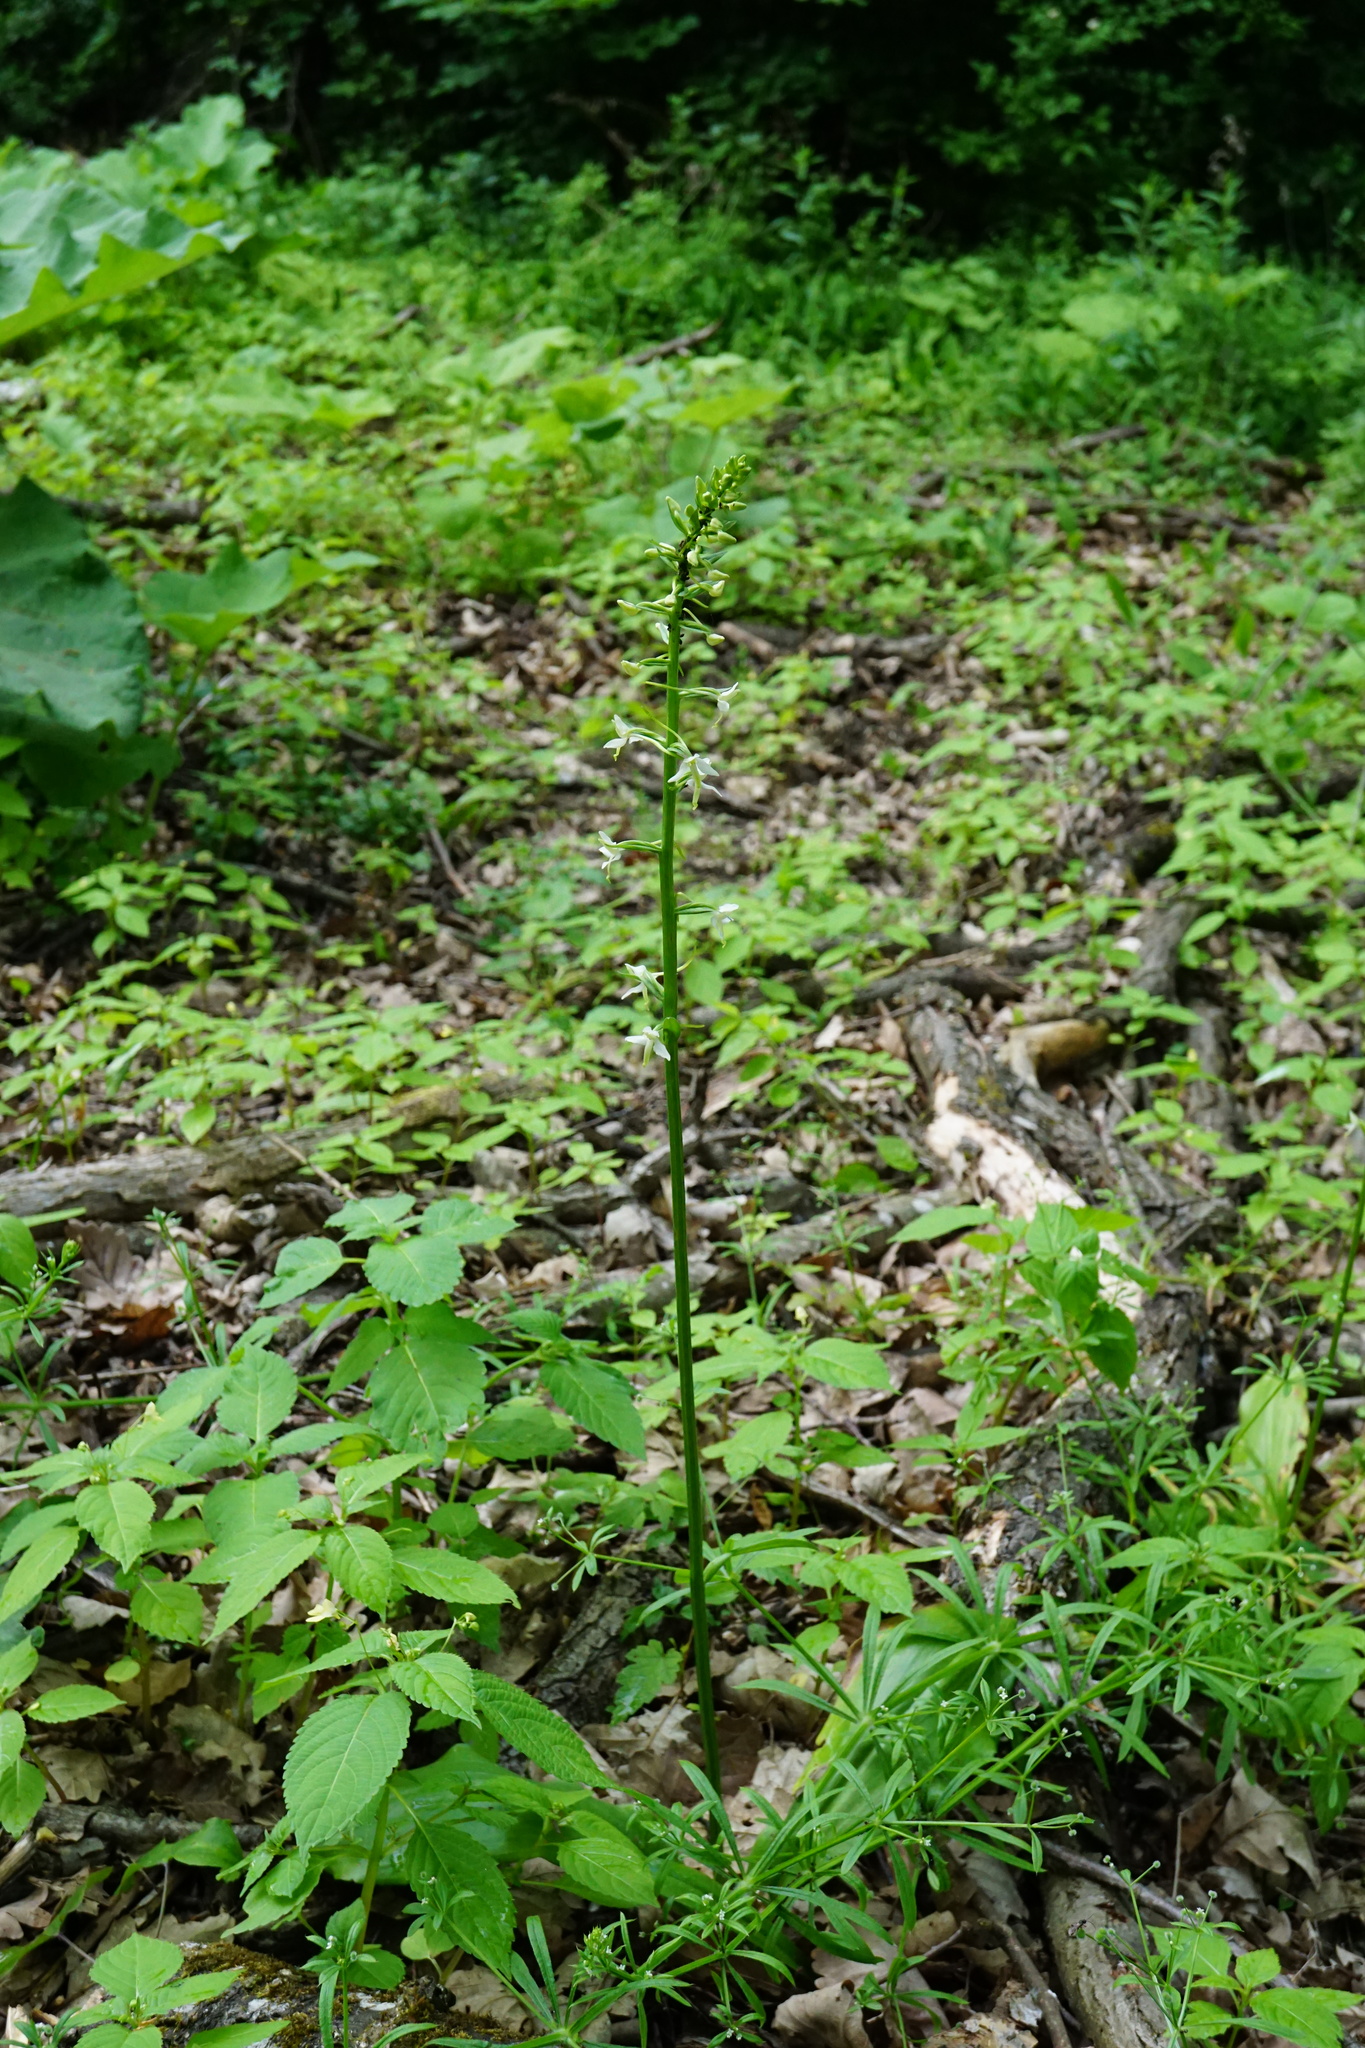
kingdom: Plantae
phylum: Tracheophyta
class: Liliopsida
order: Asparagales
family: Orchidaceae
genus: Platanthera
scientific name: Platanthera bifolia
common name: Lesser butterfly-orchid
